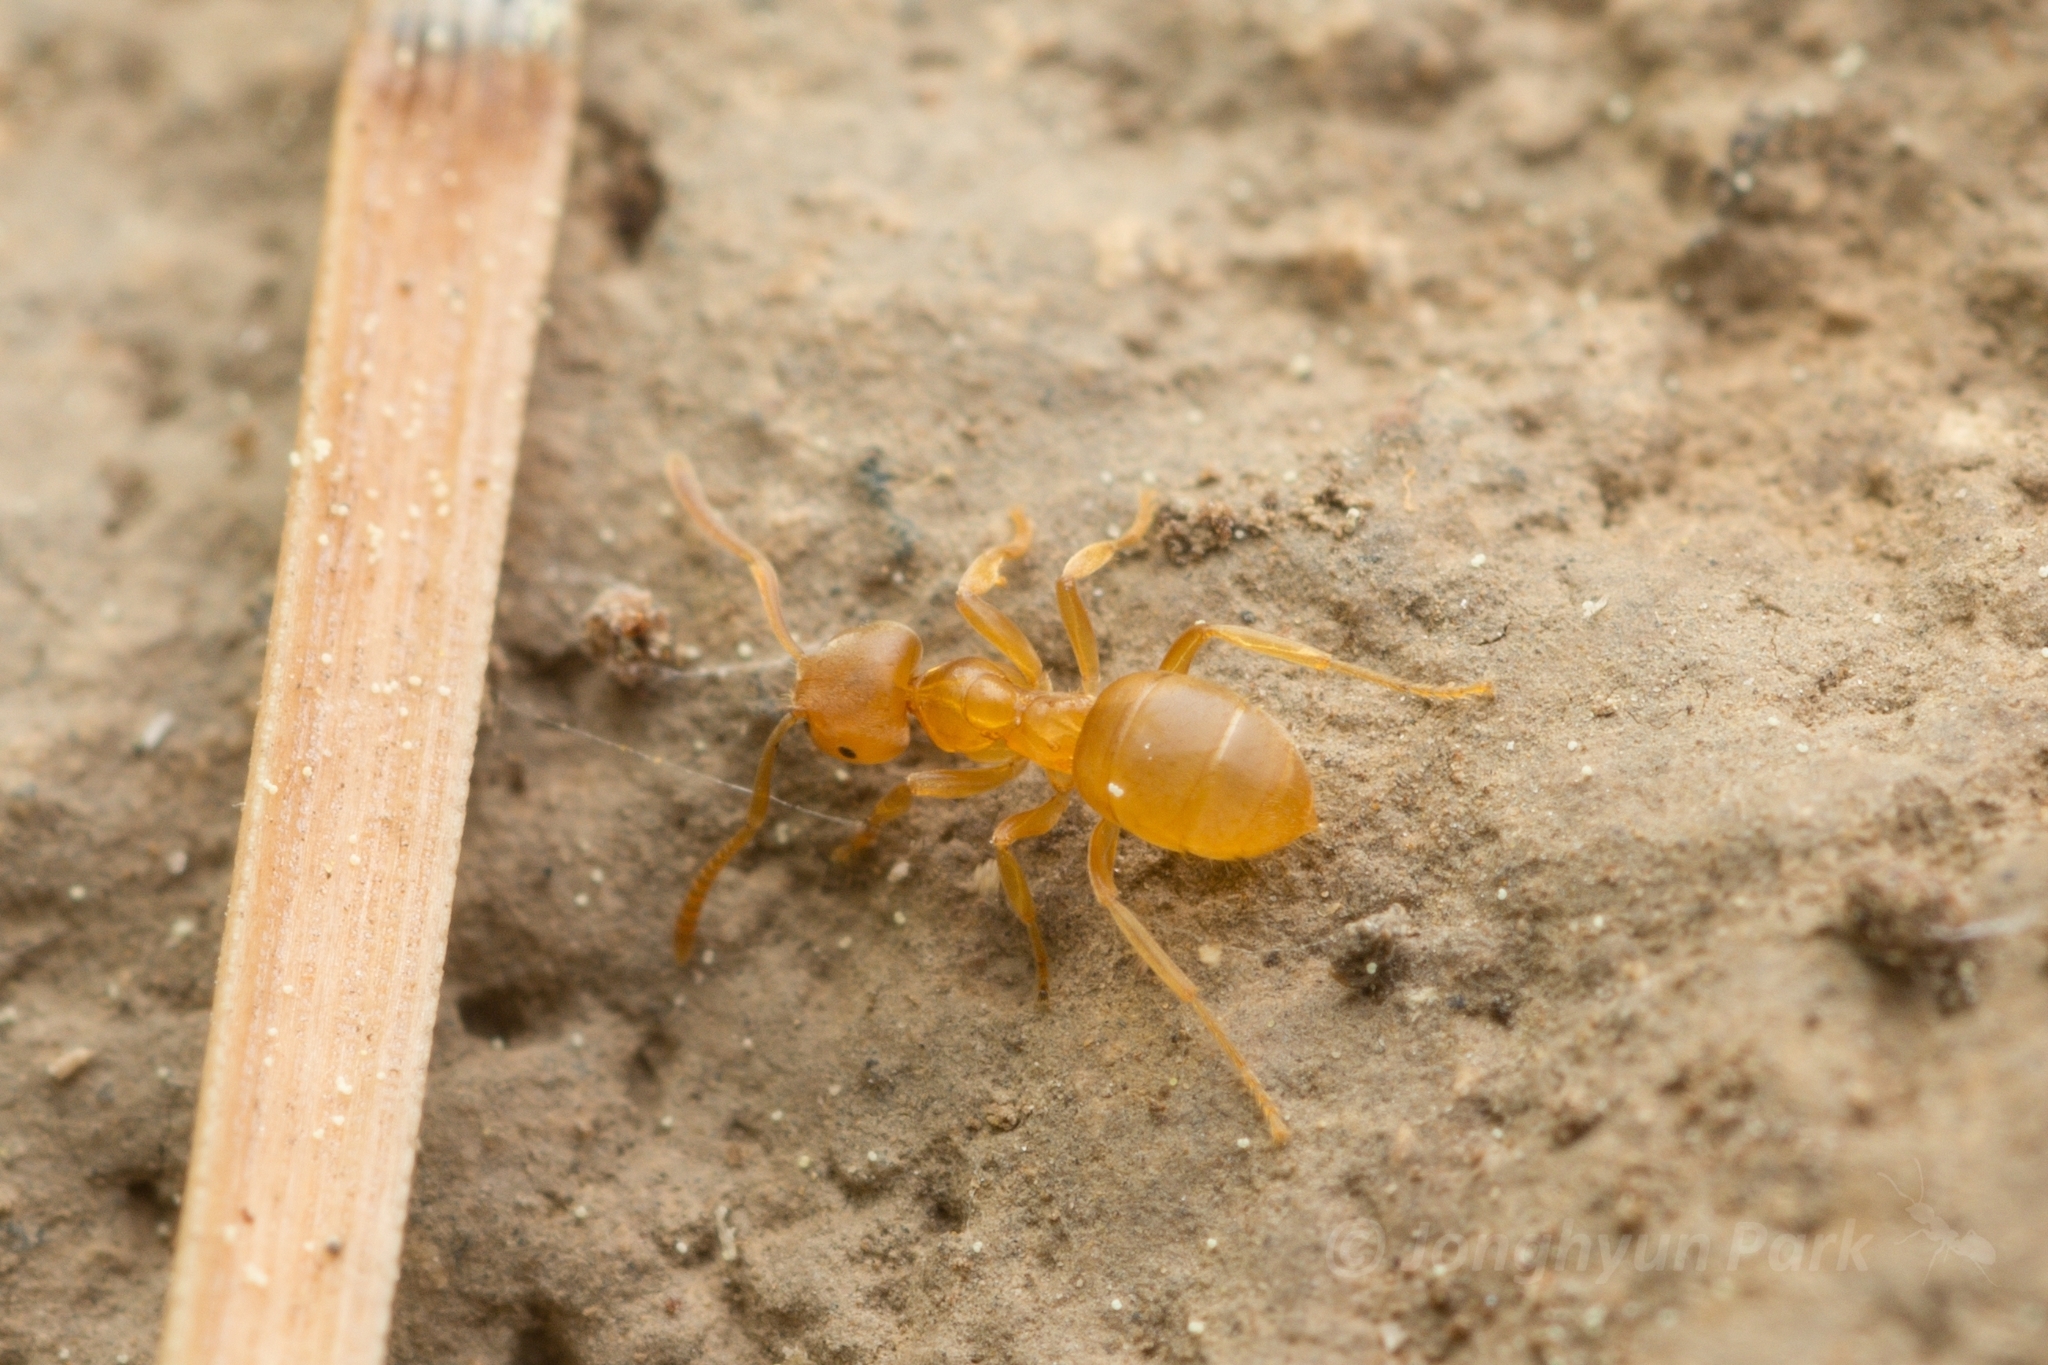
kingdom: Animalia
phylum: Arthropoda
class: Insecta
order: Hymenoptera
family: Formicidae
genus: Lasius
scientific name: Lasius flavus
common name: Blond field ant
